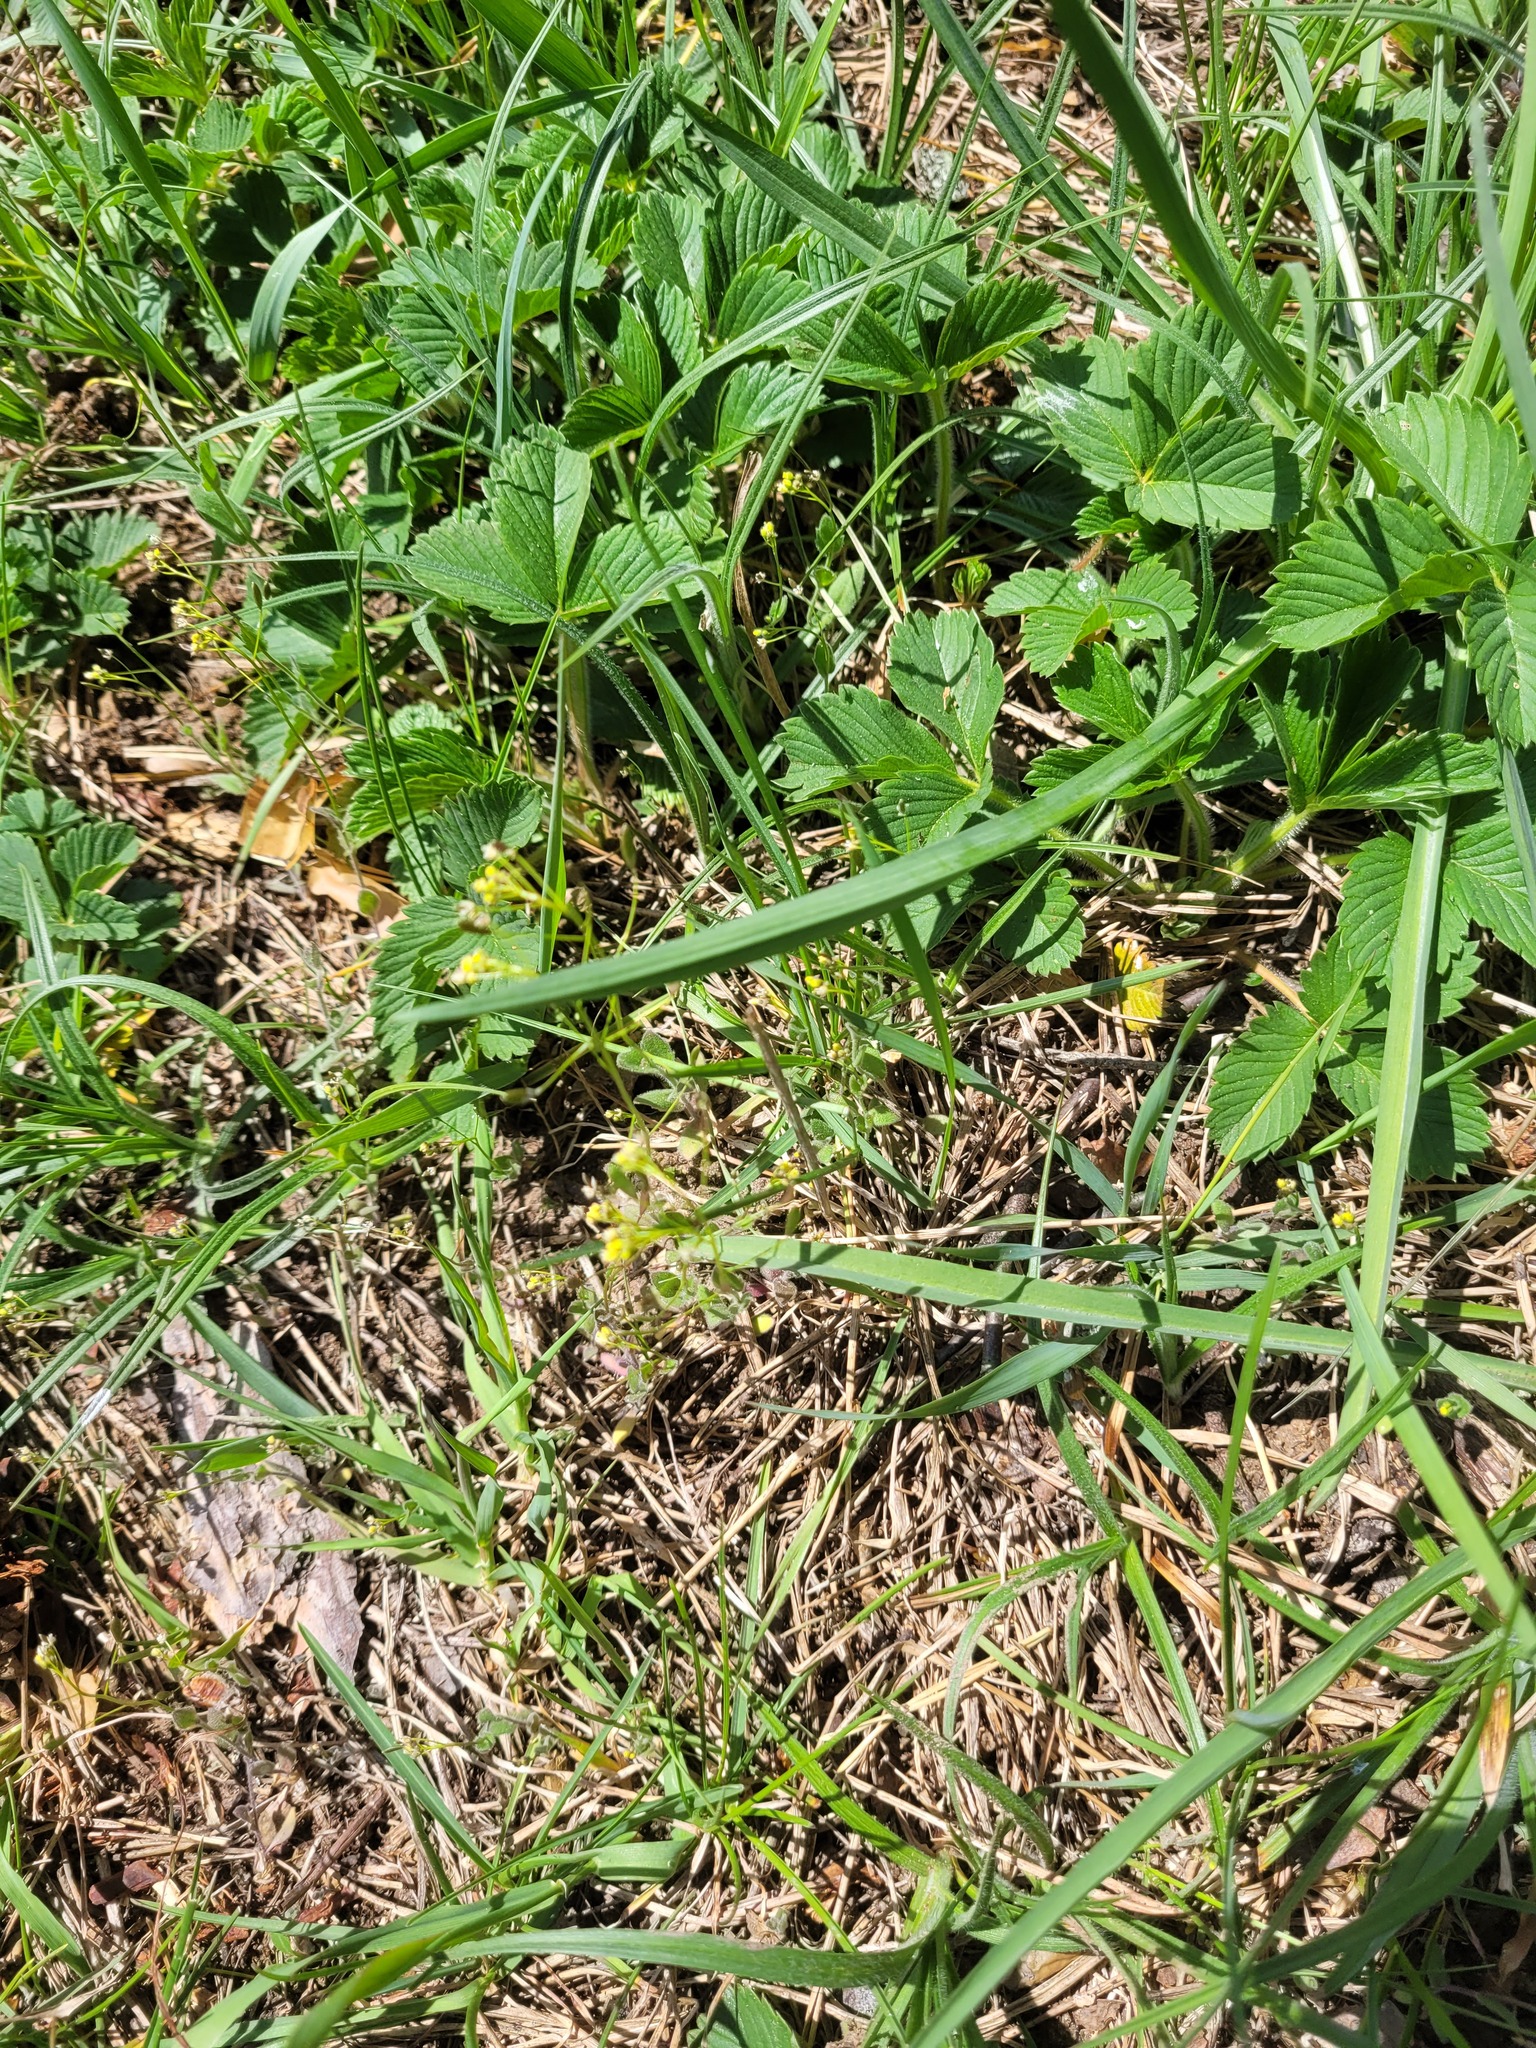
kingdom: Plantae
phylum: Tracheophyta
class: Magnoliopsida
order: Brassicales
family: Brassicaceae
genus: Draba
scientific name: Draba nemorosa
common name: Wood whitlow-grass
